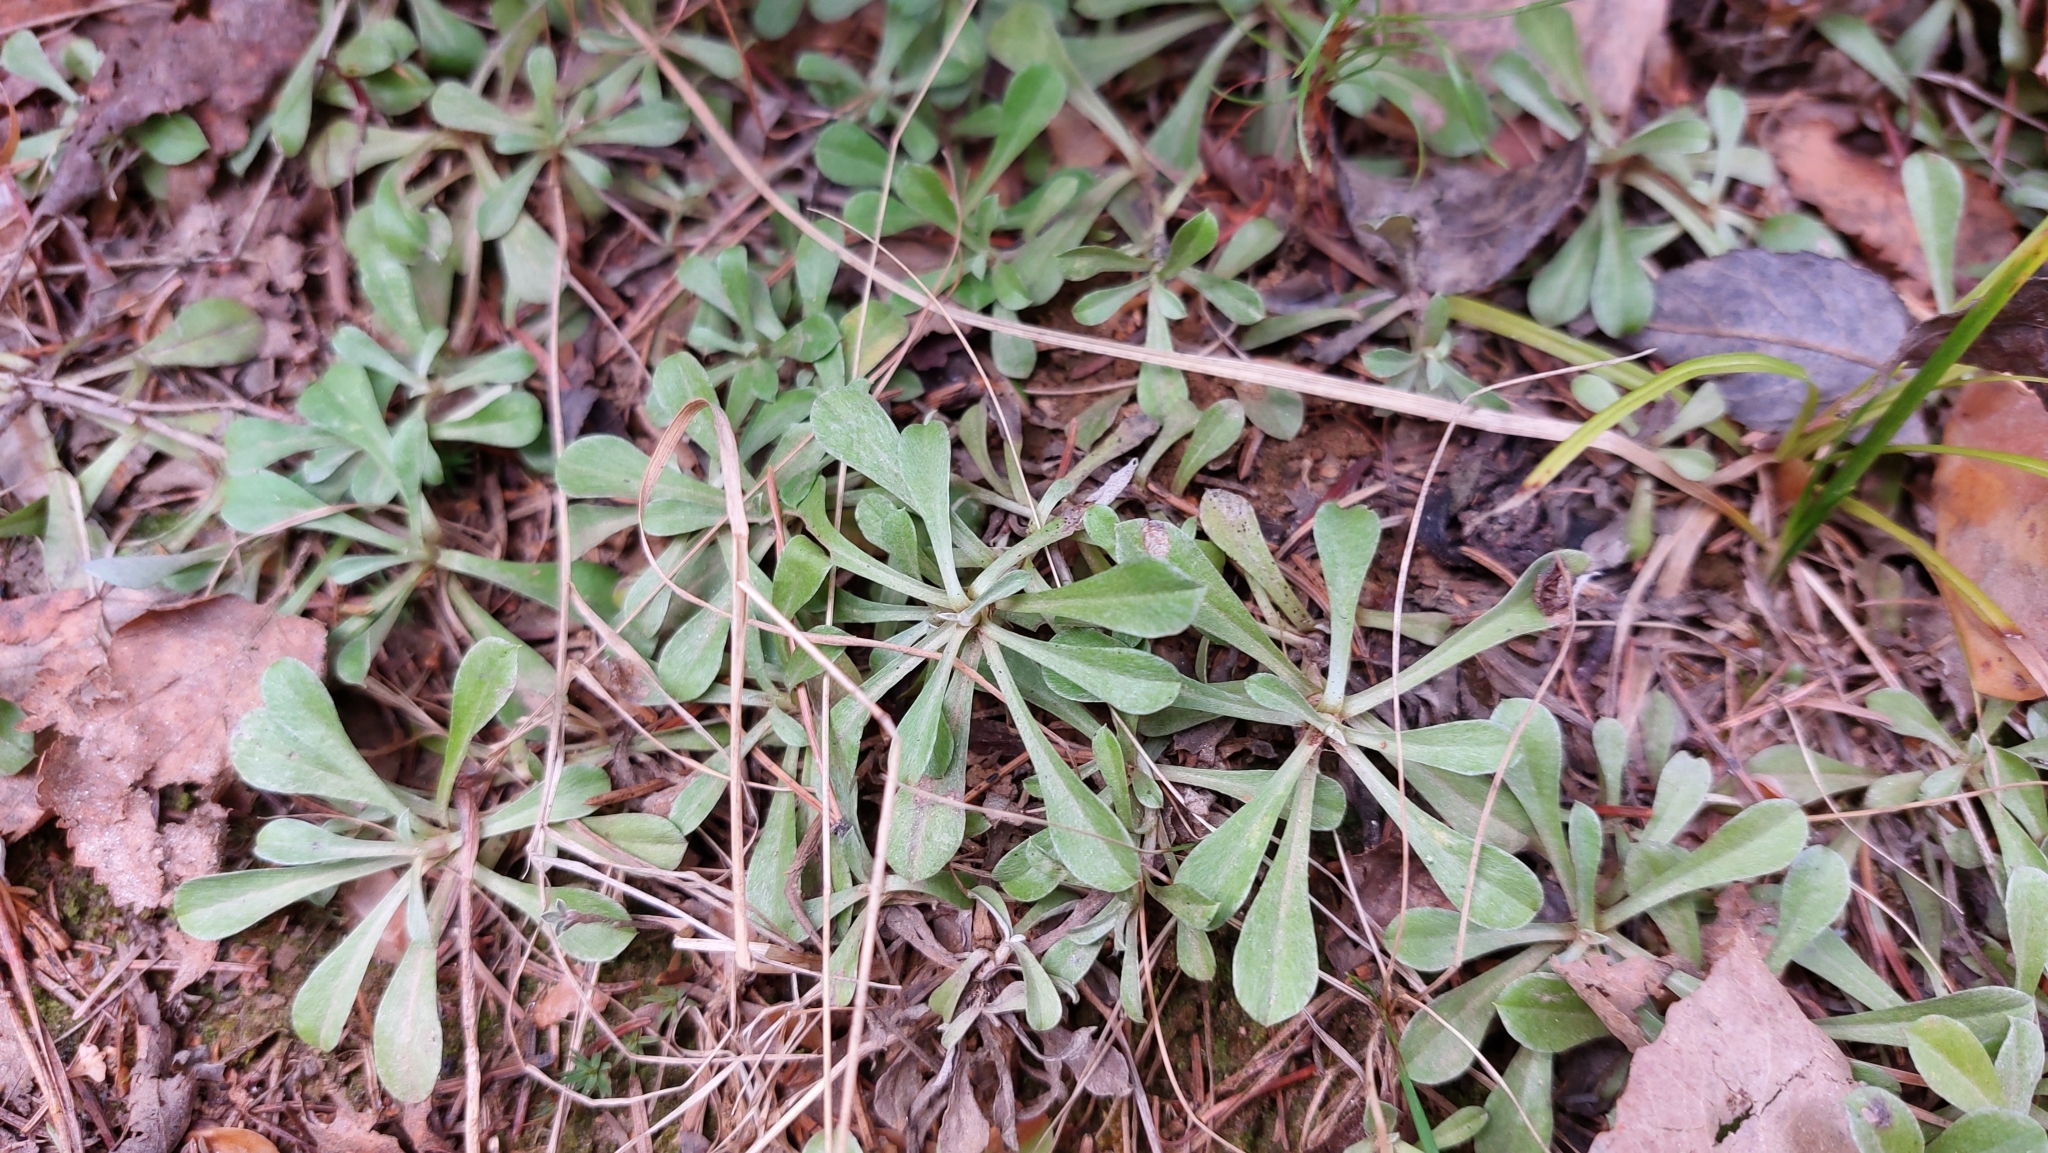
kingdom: Plantae
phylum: Tracheophyta
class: Magnoliopsida
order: Asterales
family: Asteraceae
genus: Antennaria
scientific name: Antennaria dioica
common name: Mountain everlasting
